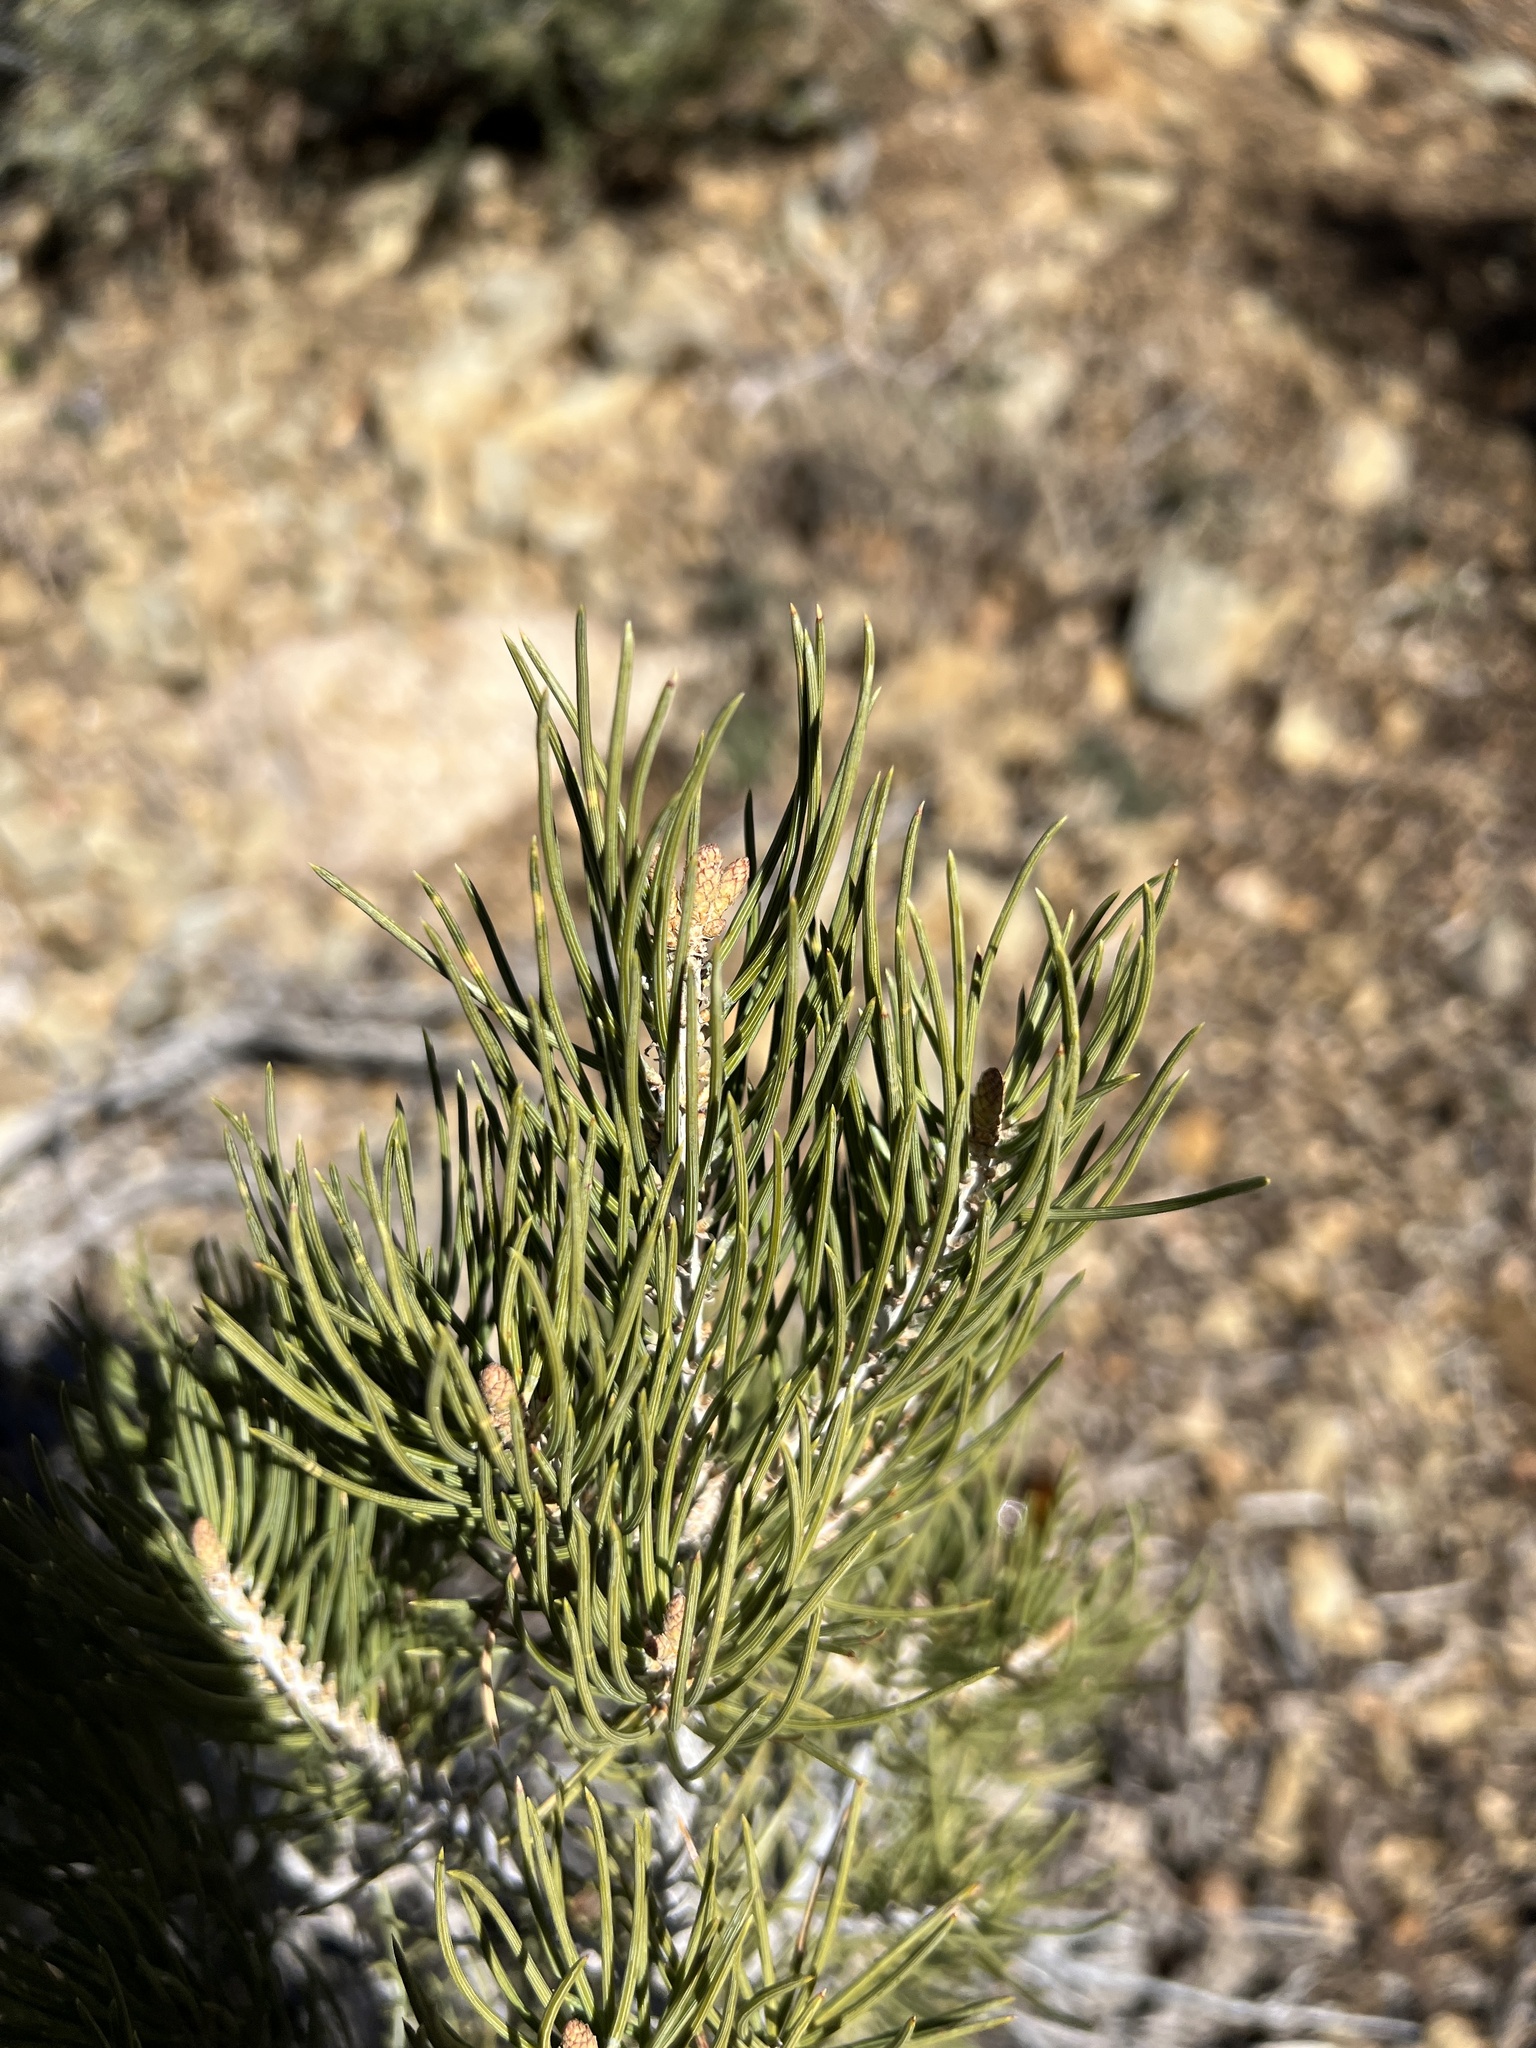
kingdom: Plantae
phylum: Tracheophyta
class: Pinopsida
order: Pinales
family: Pinaceae
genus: Pinus
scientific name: Pinus monophylla
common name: One-leaved nut pine
